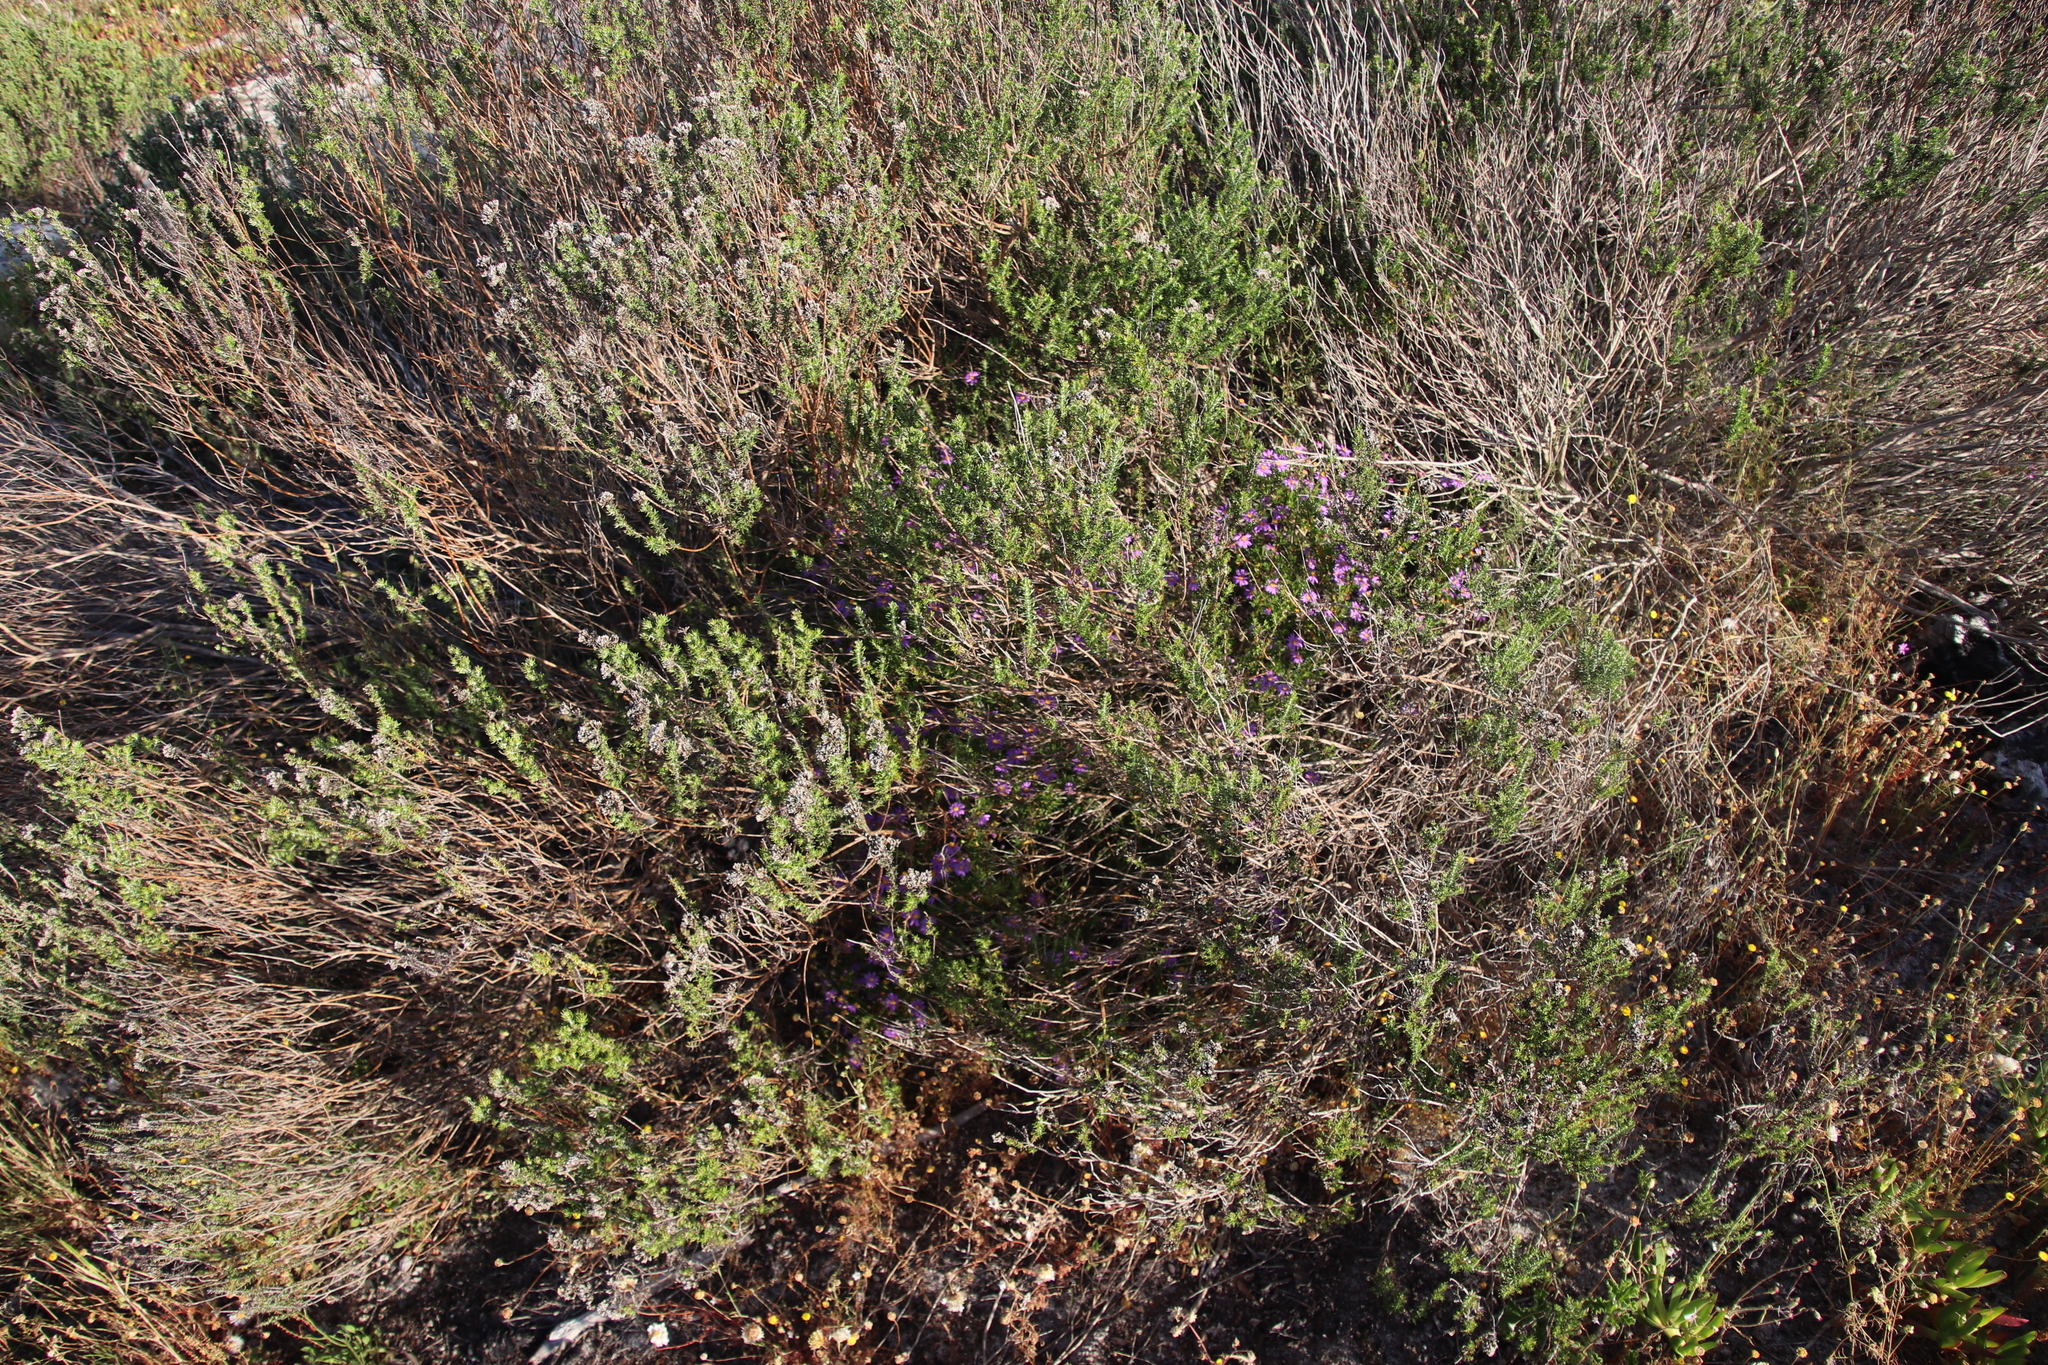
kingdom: Plantae
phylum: Tracheophyta
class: Magnoliopsida
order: Asterales
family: Asteraceae
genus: Felicia
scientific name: Felicia fruticosa
